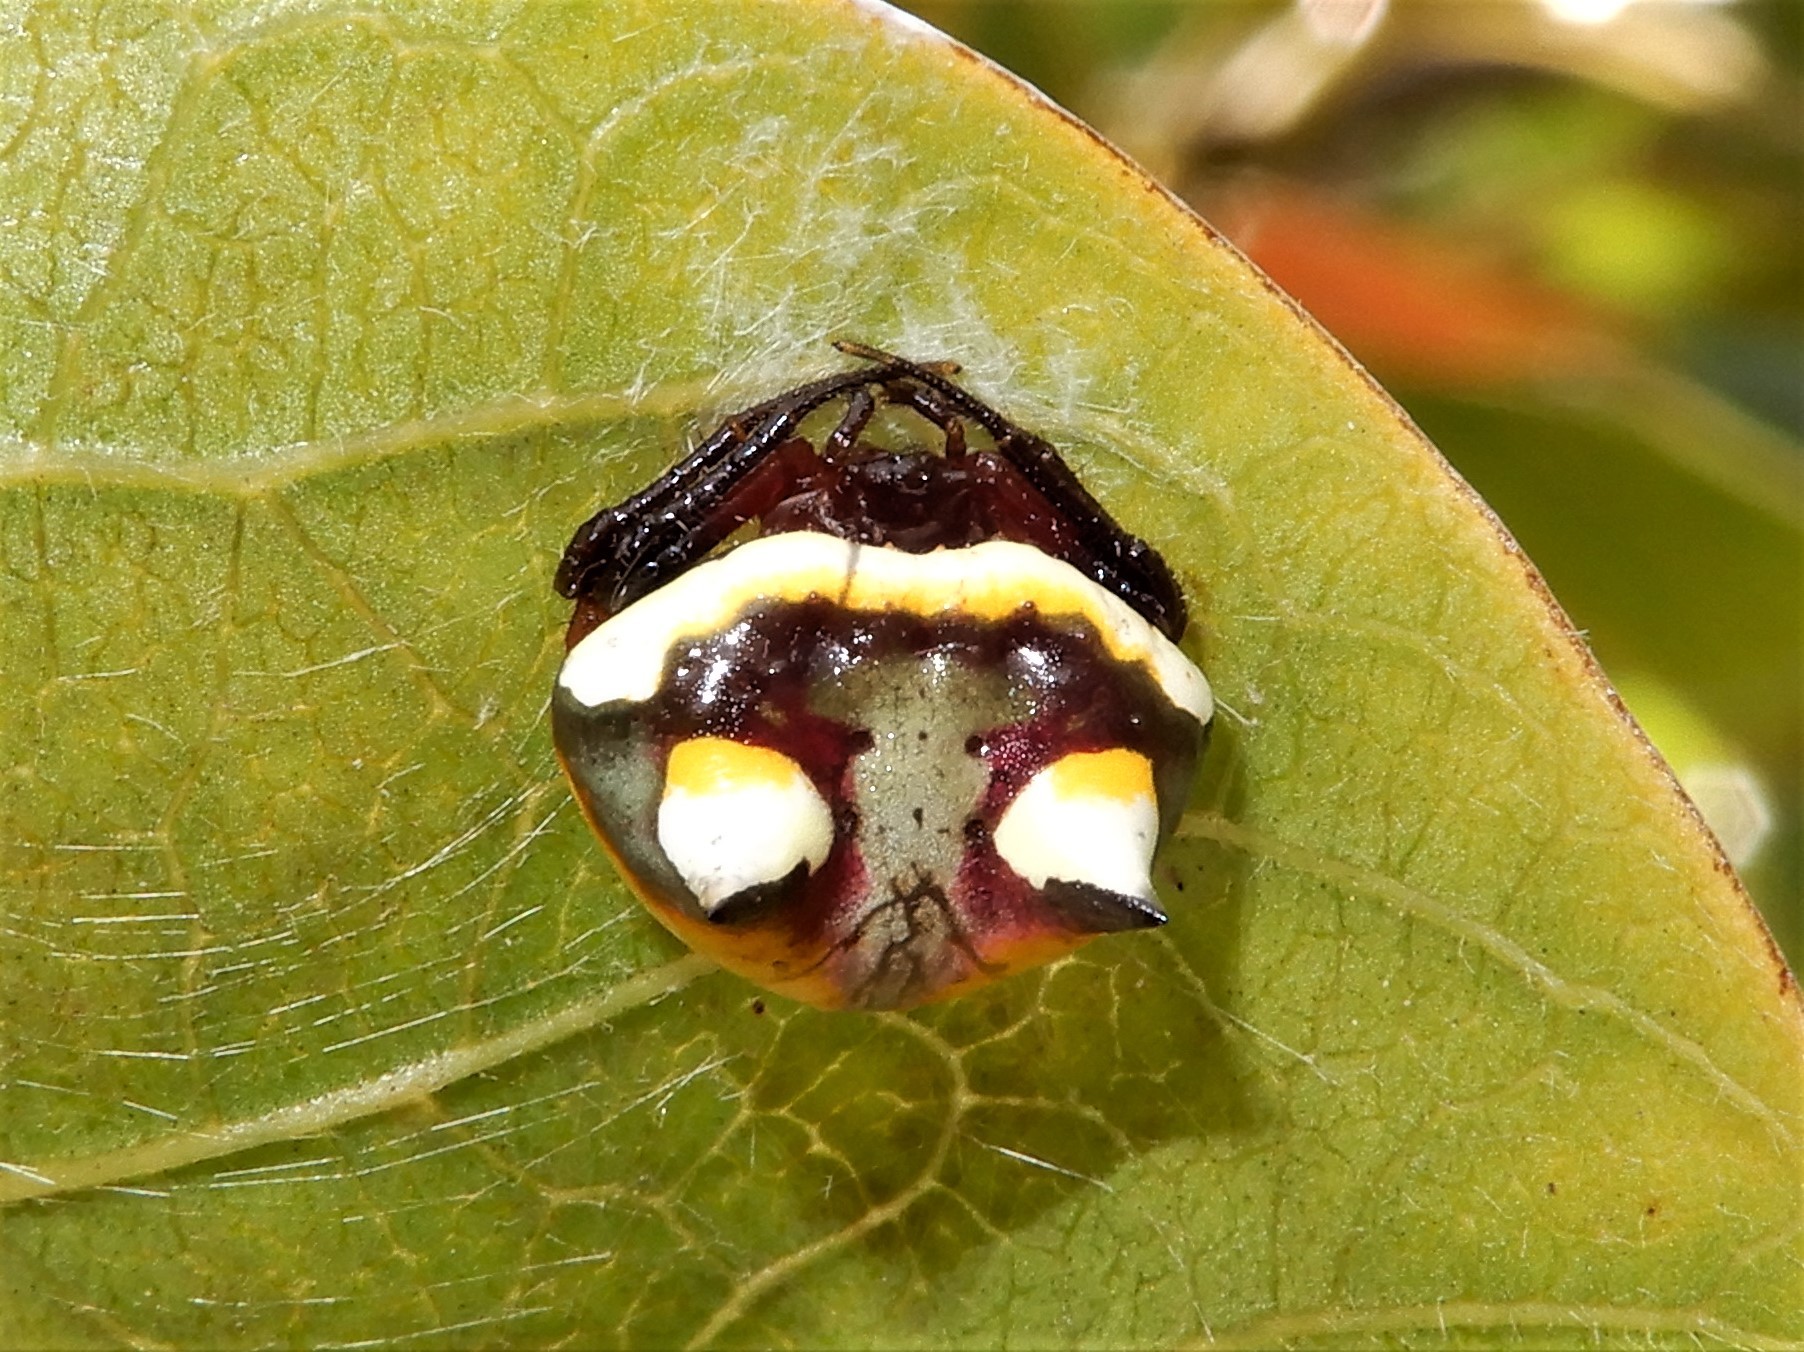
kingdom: Animalia
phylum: Arthropoda
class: Arachnida
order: Araneae
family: Araneidae
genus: Poecilopachys
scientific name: Poecilopachys australasia
